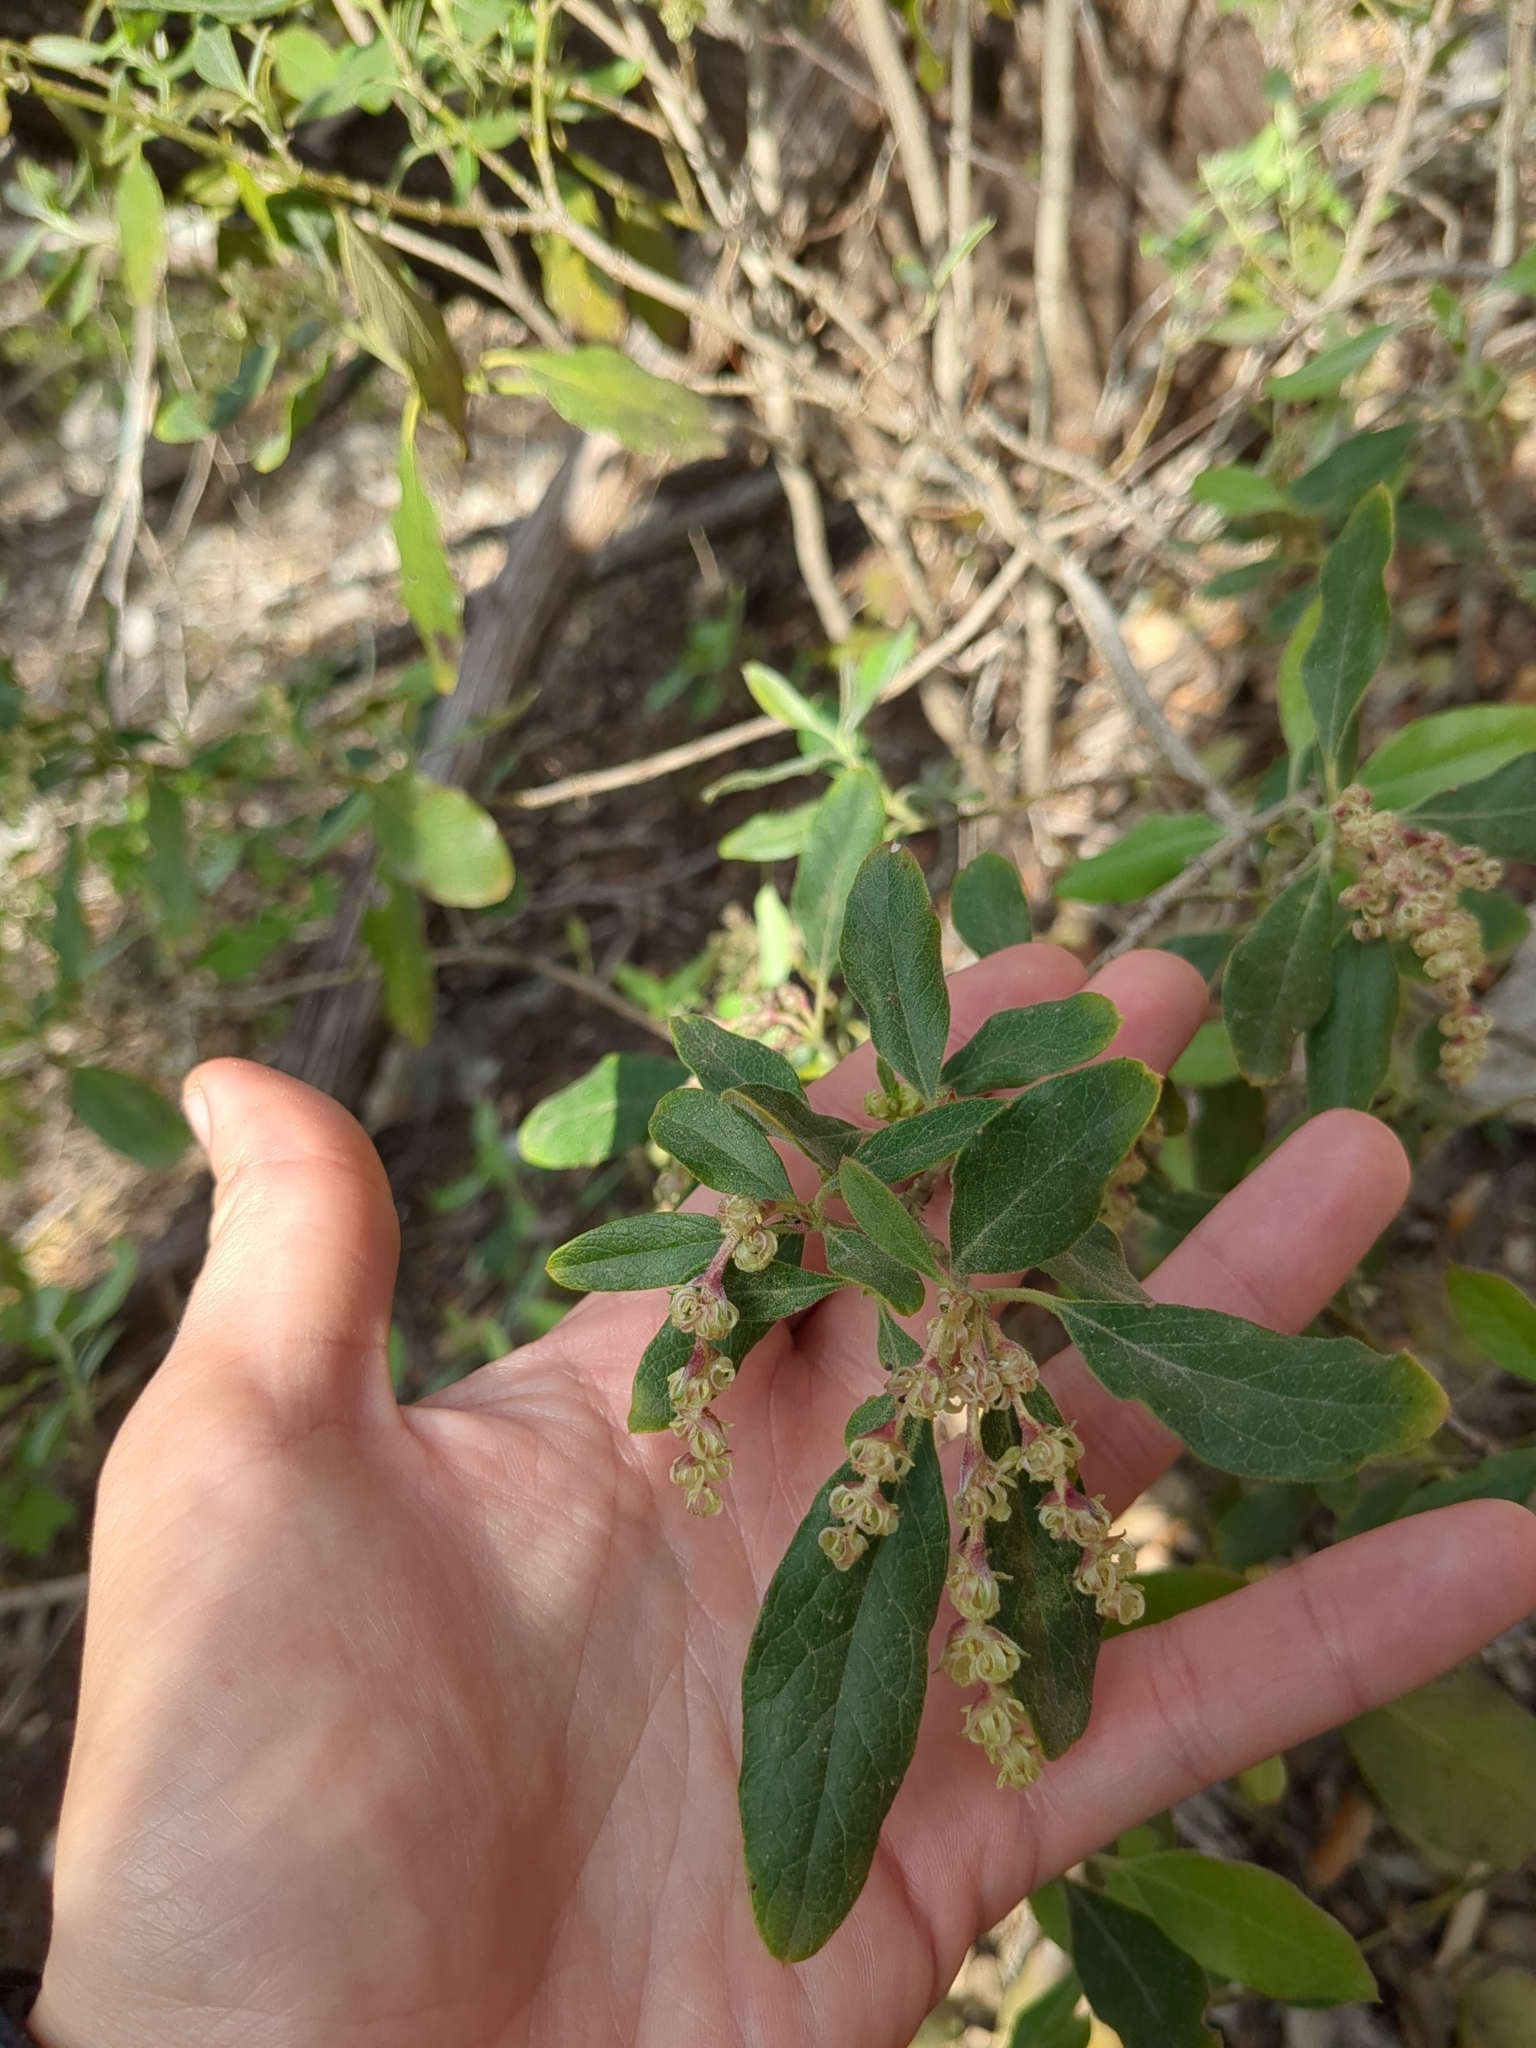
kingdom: Plantae
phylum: Tracheophyta
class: Magnoliopsida
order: Garryales
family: Garryaceae
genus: Garrya
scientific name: Garrya lindheimeri
